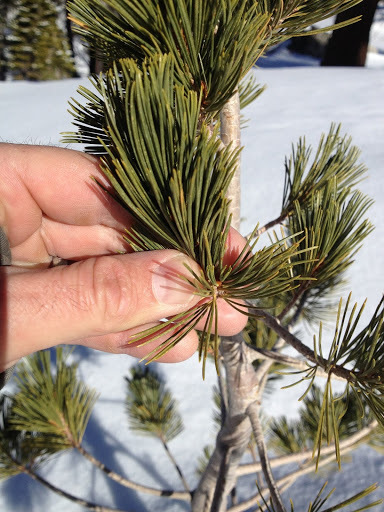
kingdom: Plantae
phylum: Tracheophyta
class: Pinopsida
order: Pinales
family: Pinaceae
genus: Pinus
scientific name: Pinus monticola
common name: Western white pine
